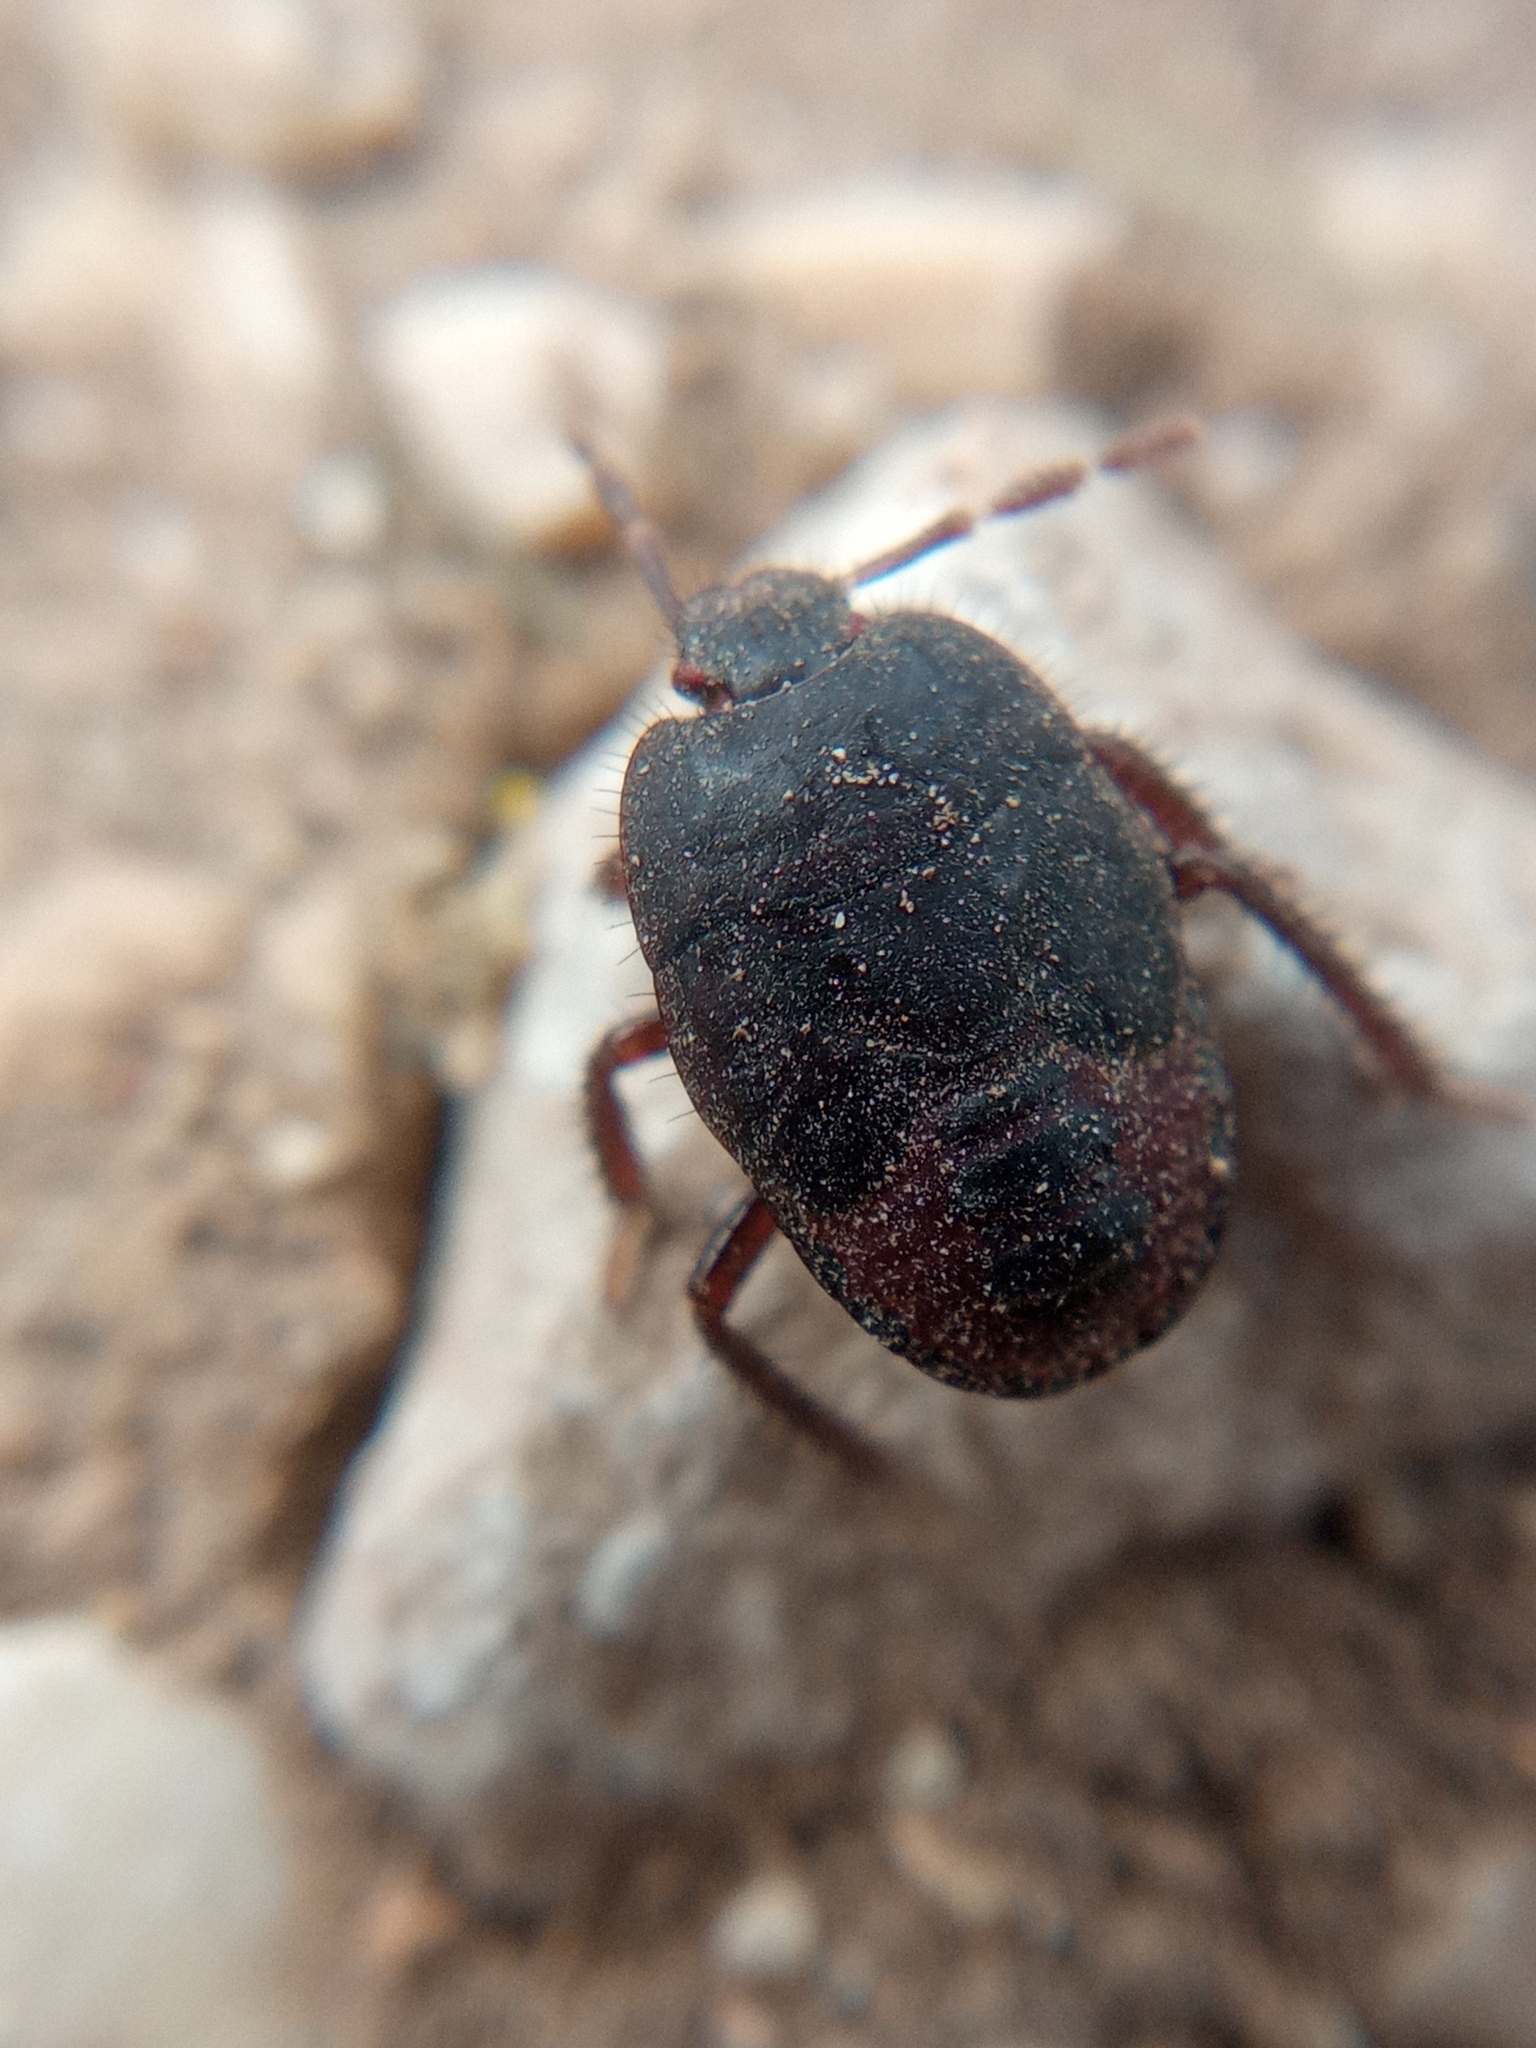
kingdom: Animalia
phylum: Arthropoda
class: Insecta
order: Hemiptera
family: Cydnidae
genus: Cydnus
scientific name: Cydnus aterrimus
